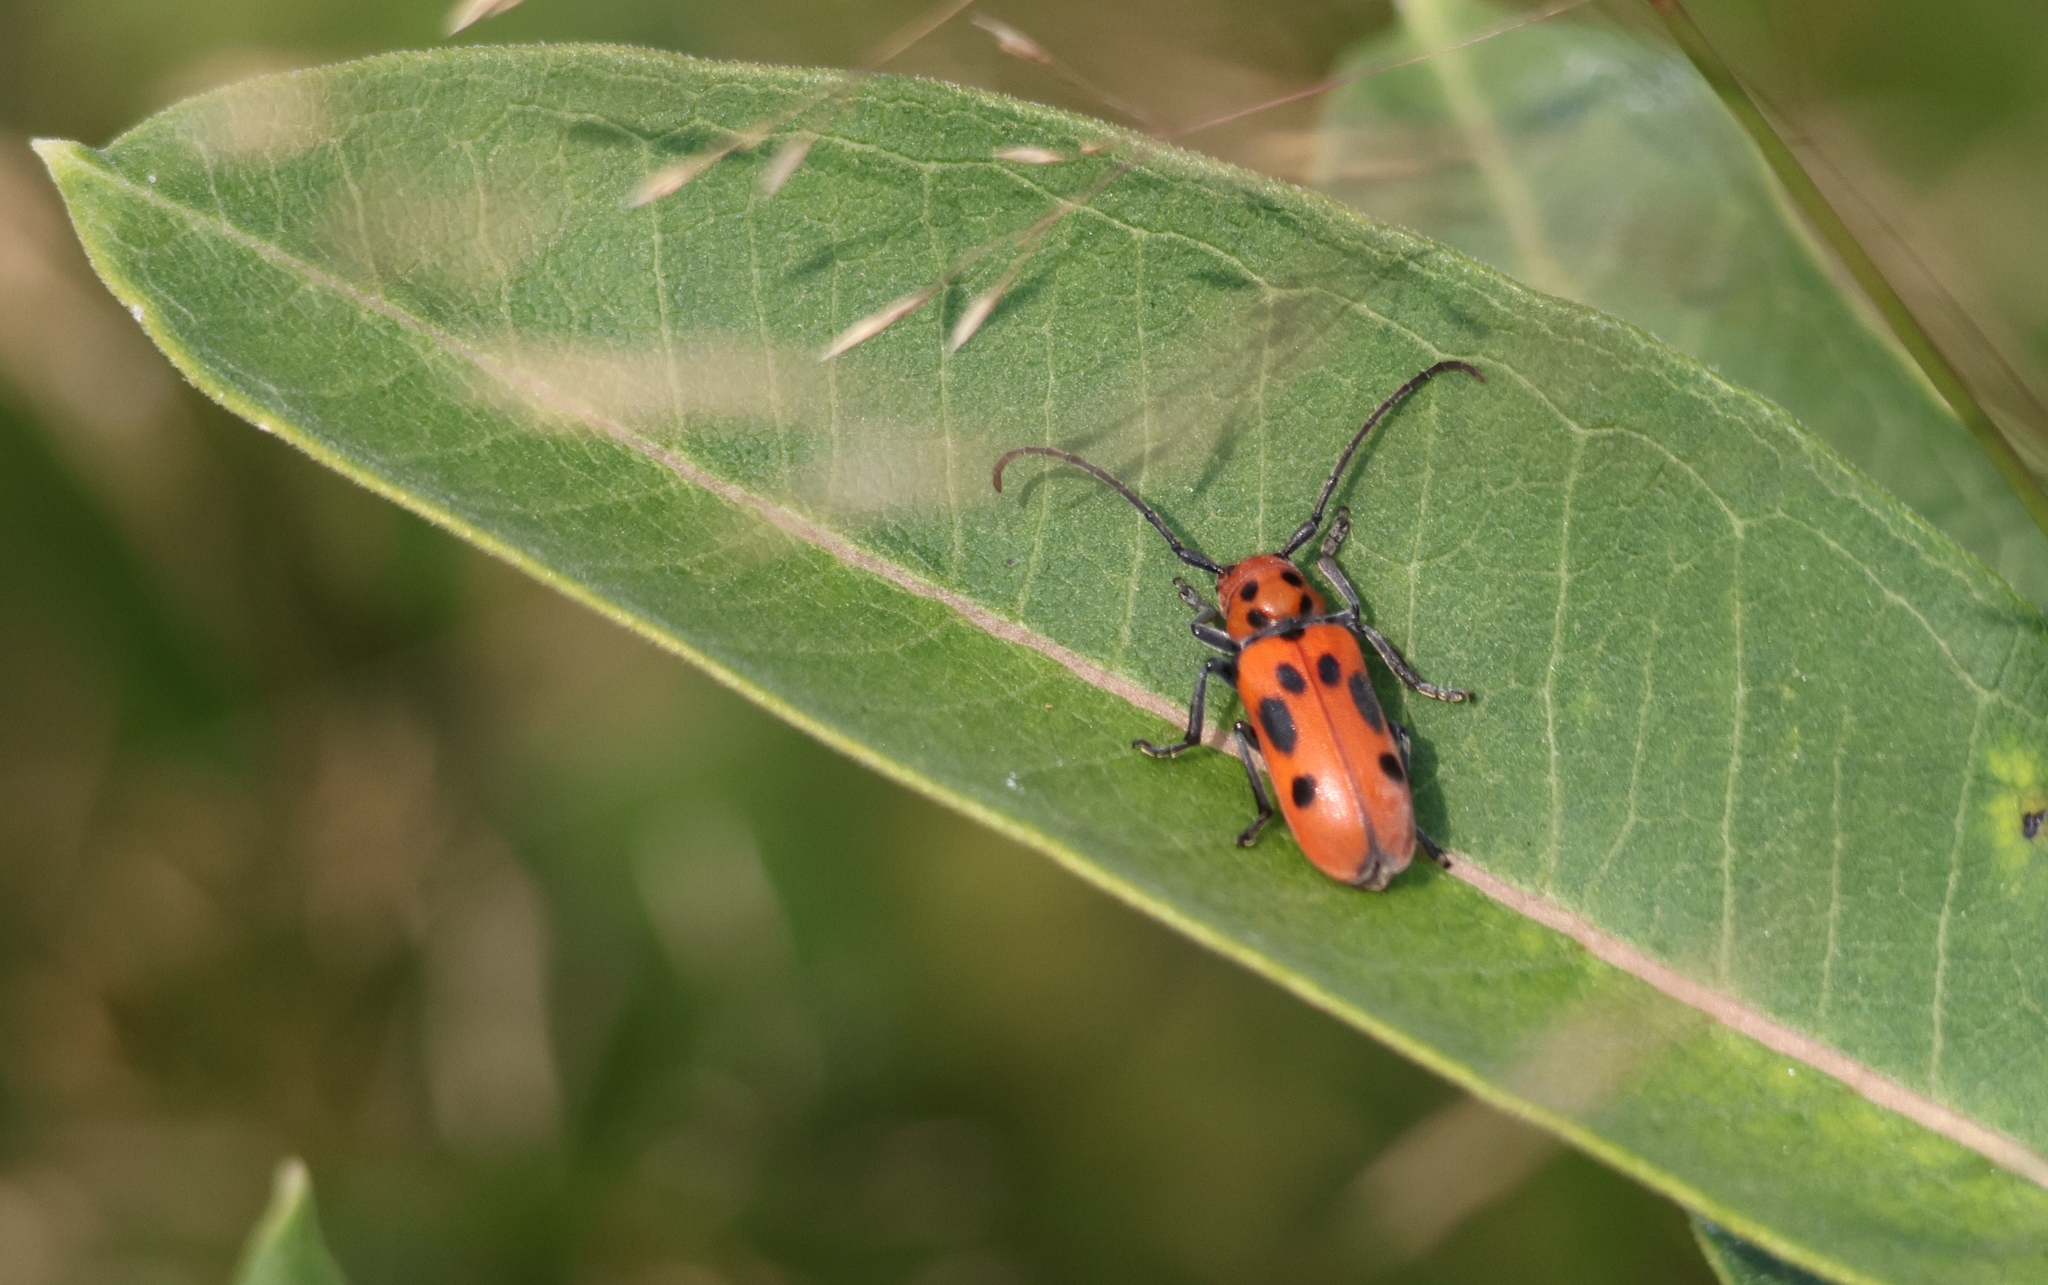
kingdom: Animalia
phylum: Arthropoda
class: Insecta
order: Coleoptera
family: Cerambycidae
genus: Tetraopes
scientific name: Tetraopes tetrophthalmus
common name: Red milkweed beetle
